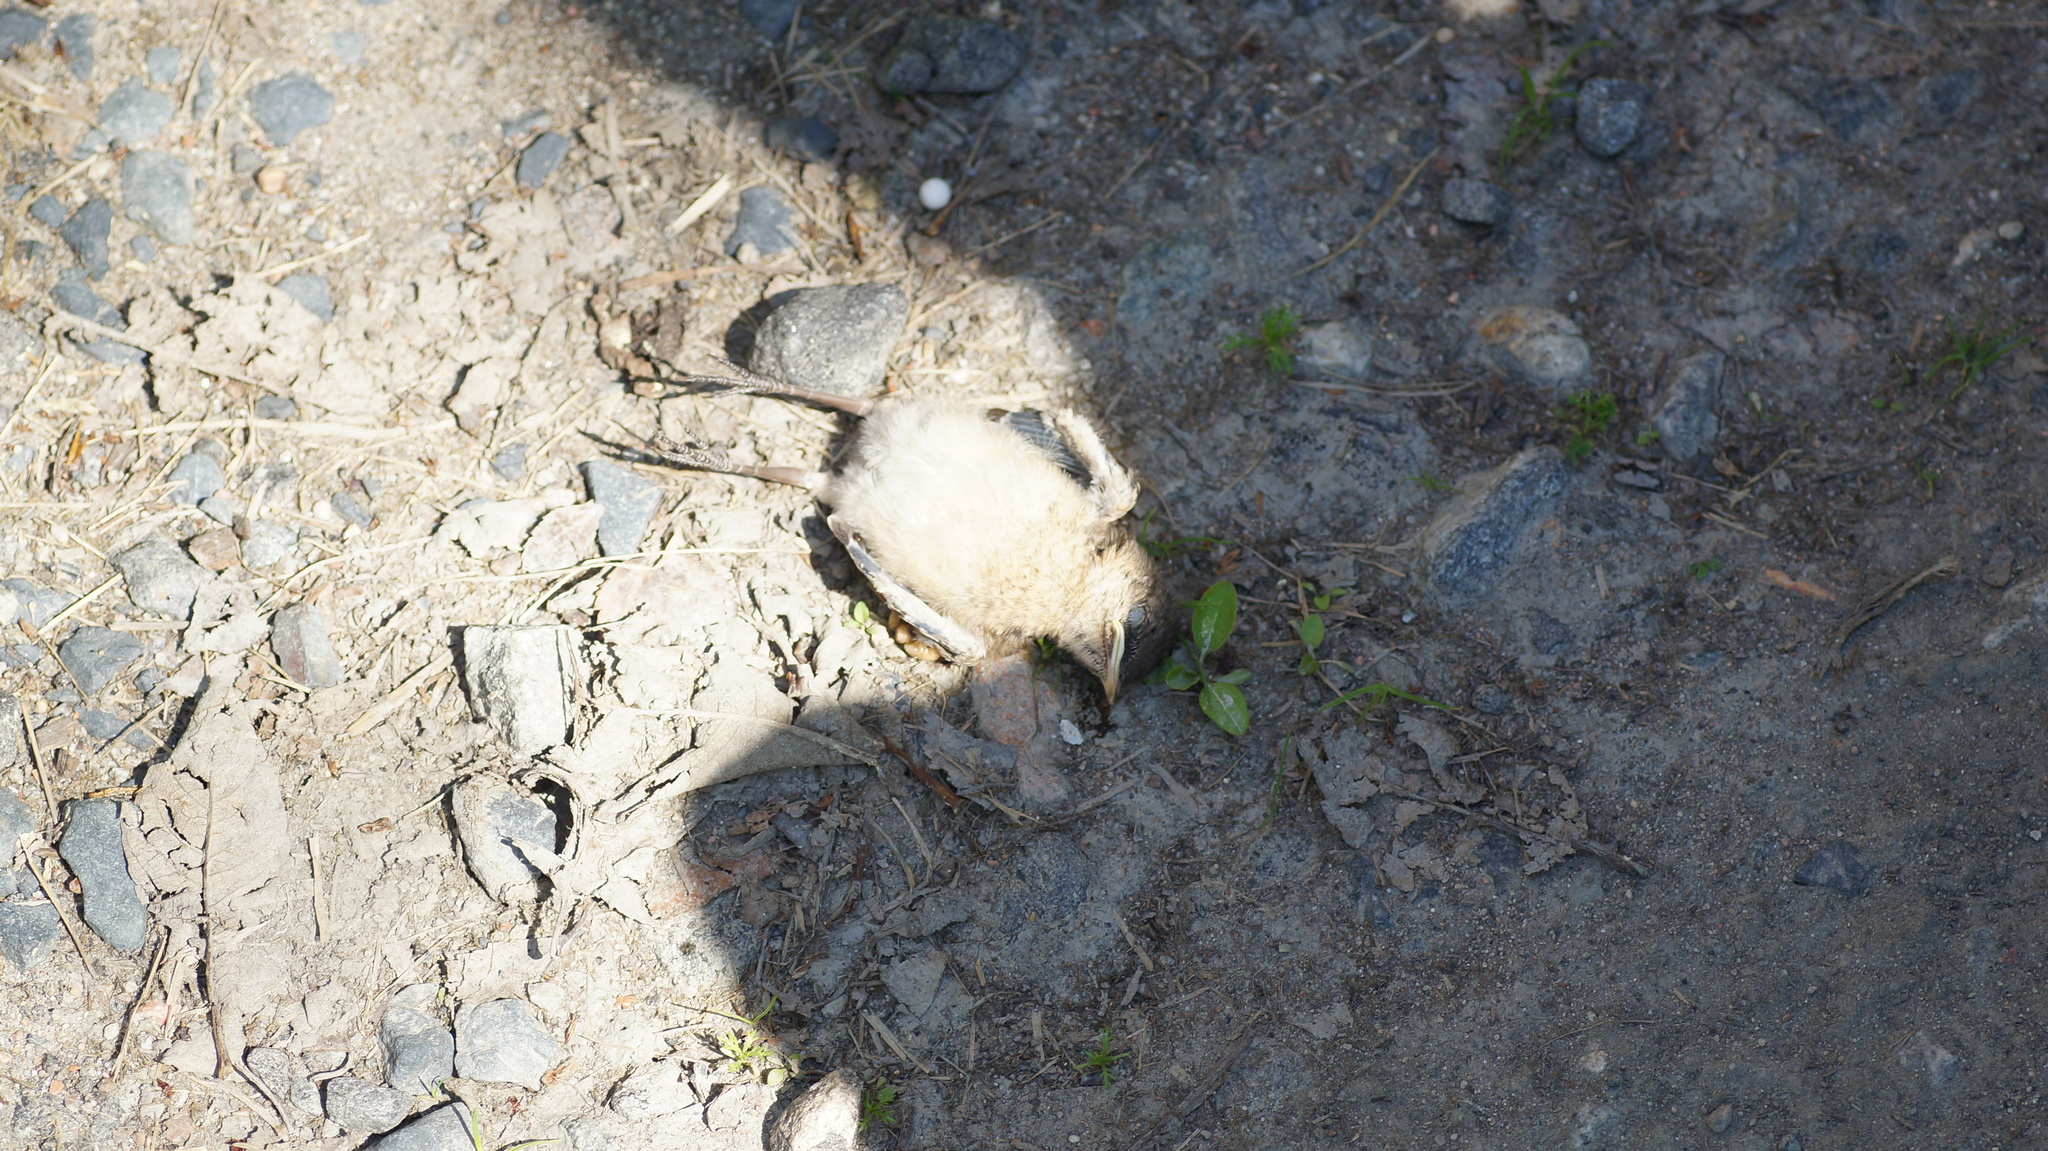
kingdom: Animalia
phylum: Chordata
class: Aves
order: Passeriformes
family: Muscicapidae
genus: Oenanthe
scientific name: Oenanthe oenanthe
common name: Northern wheatear
